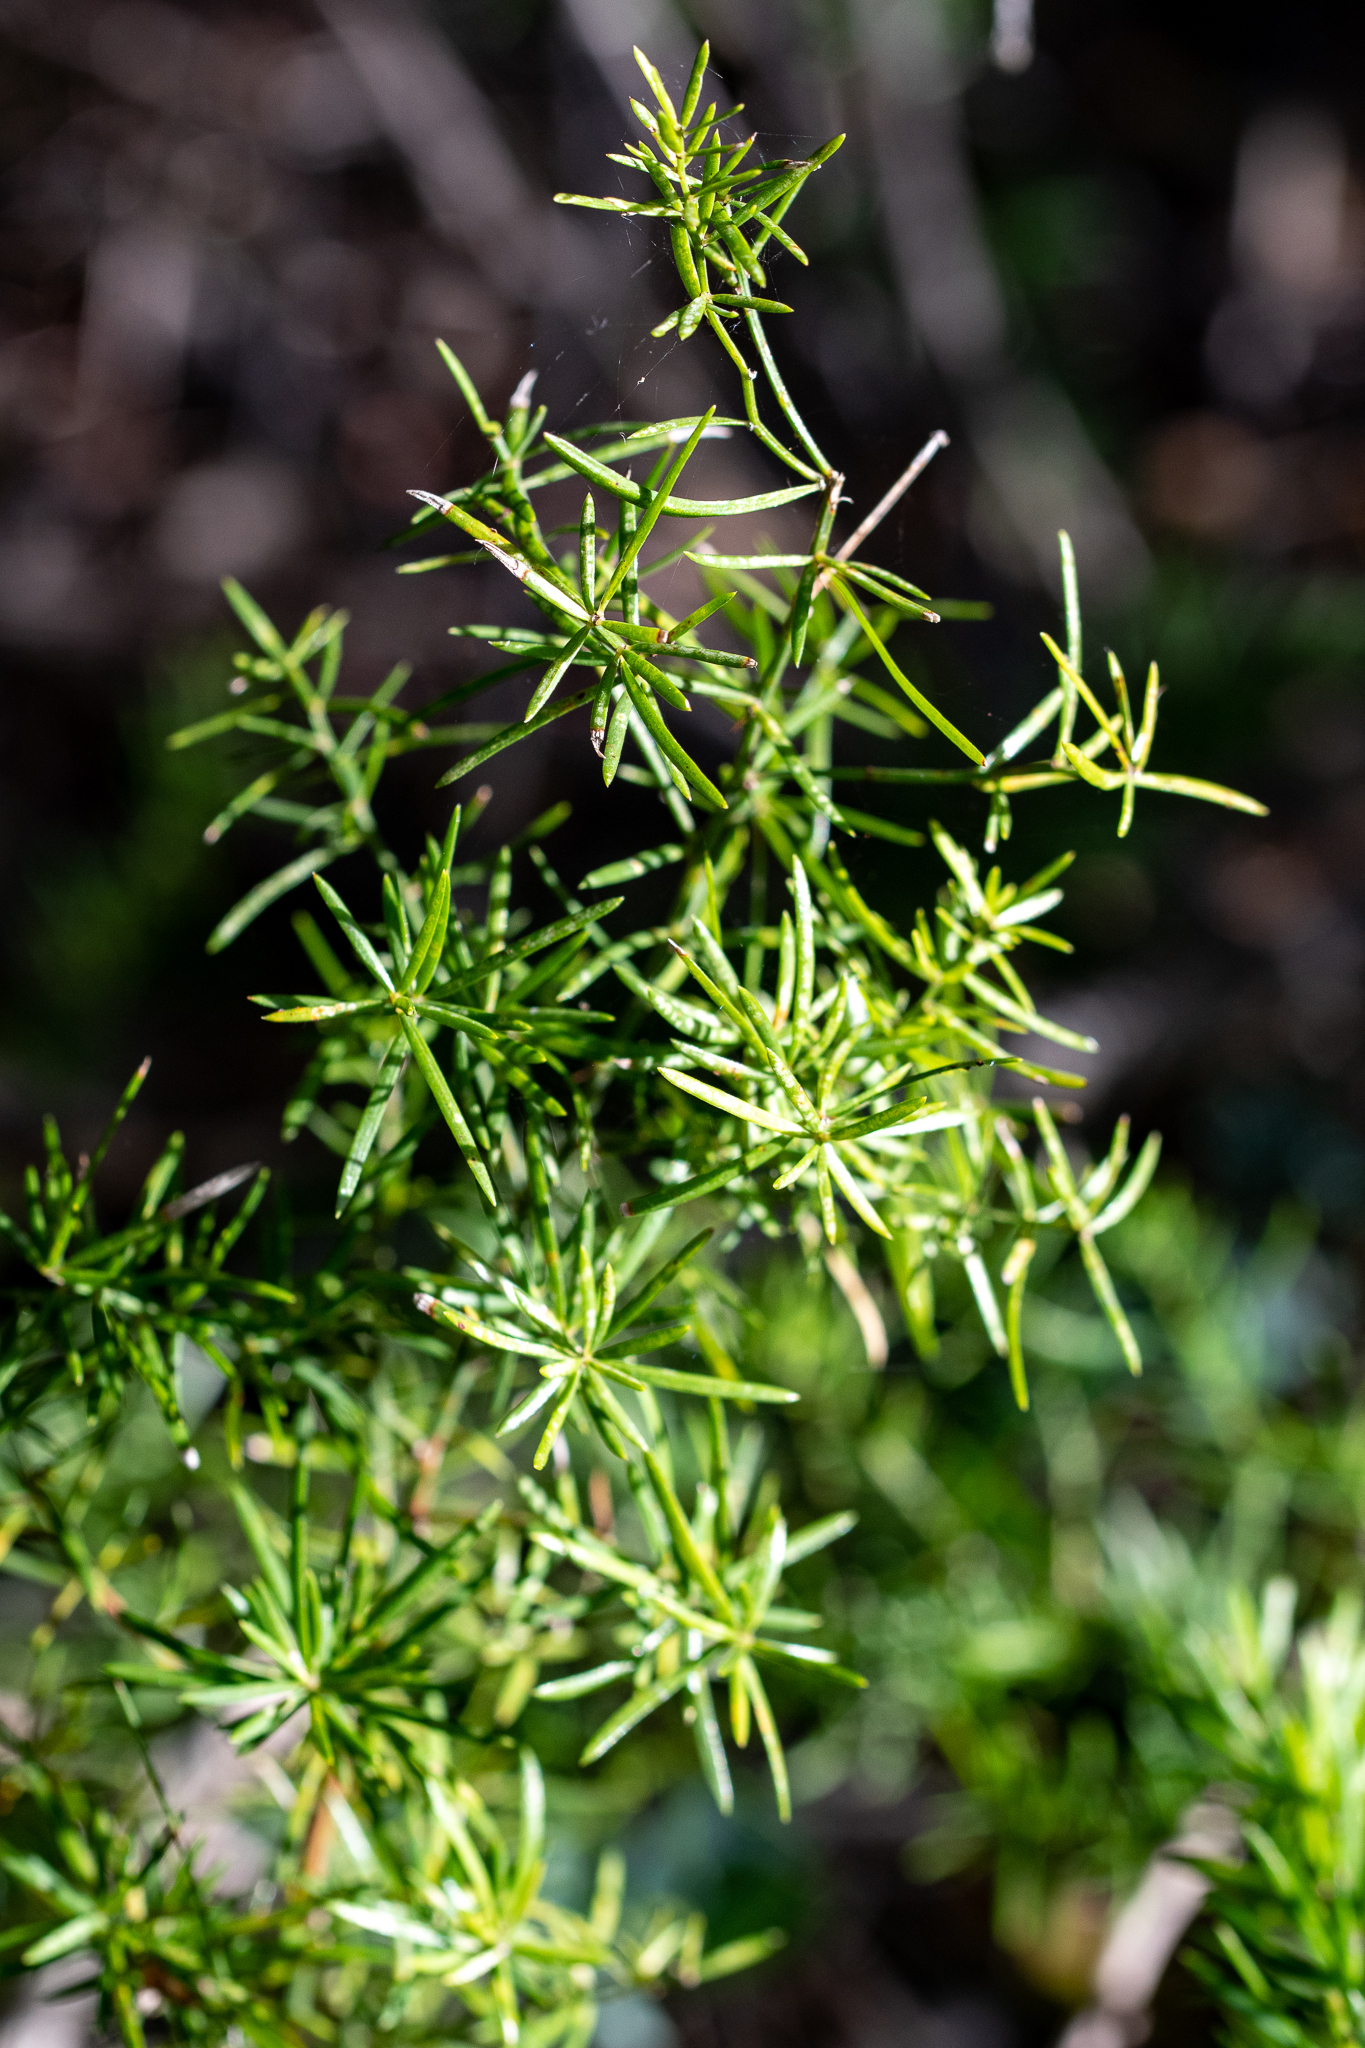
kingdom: Plantae
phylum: Tracheophyta
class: Liliopsida
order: Asparagales
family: Asparagaceae
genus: Asparagus
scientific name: Asparagus aethiopicus
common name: Sprenger's asparagus fern
